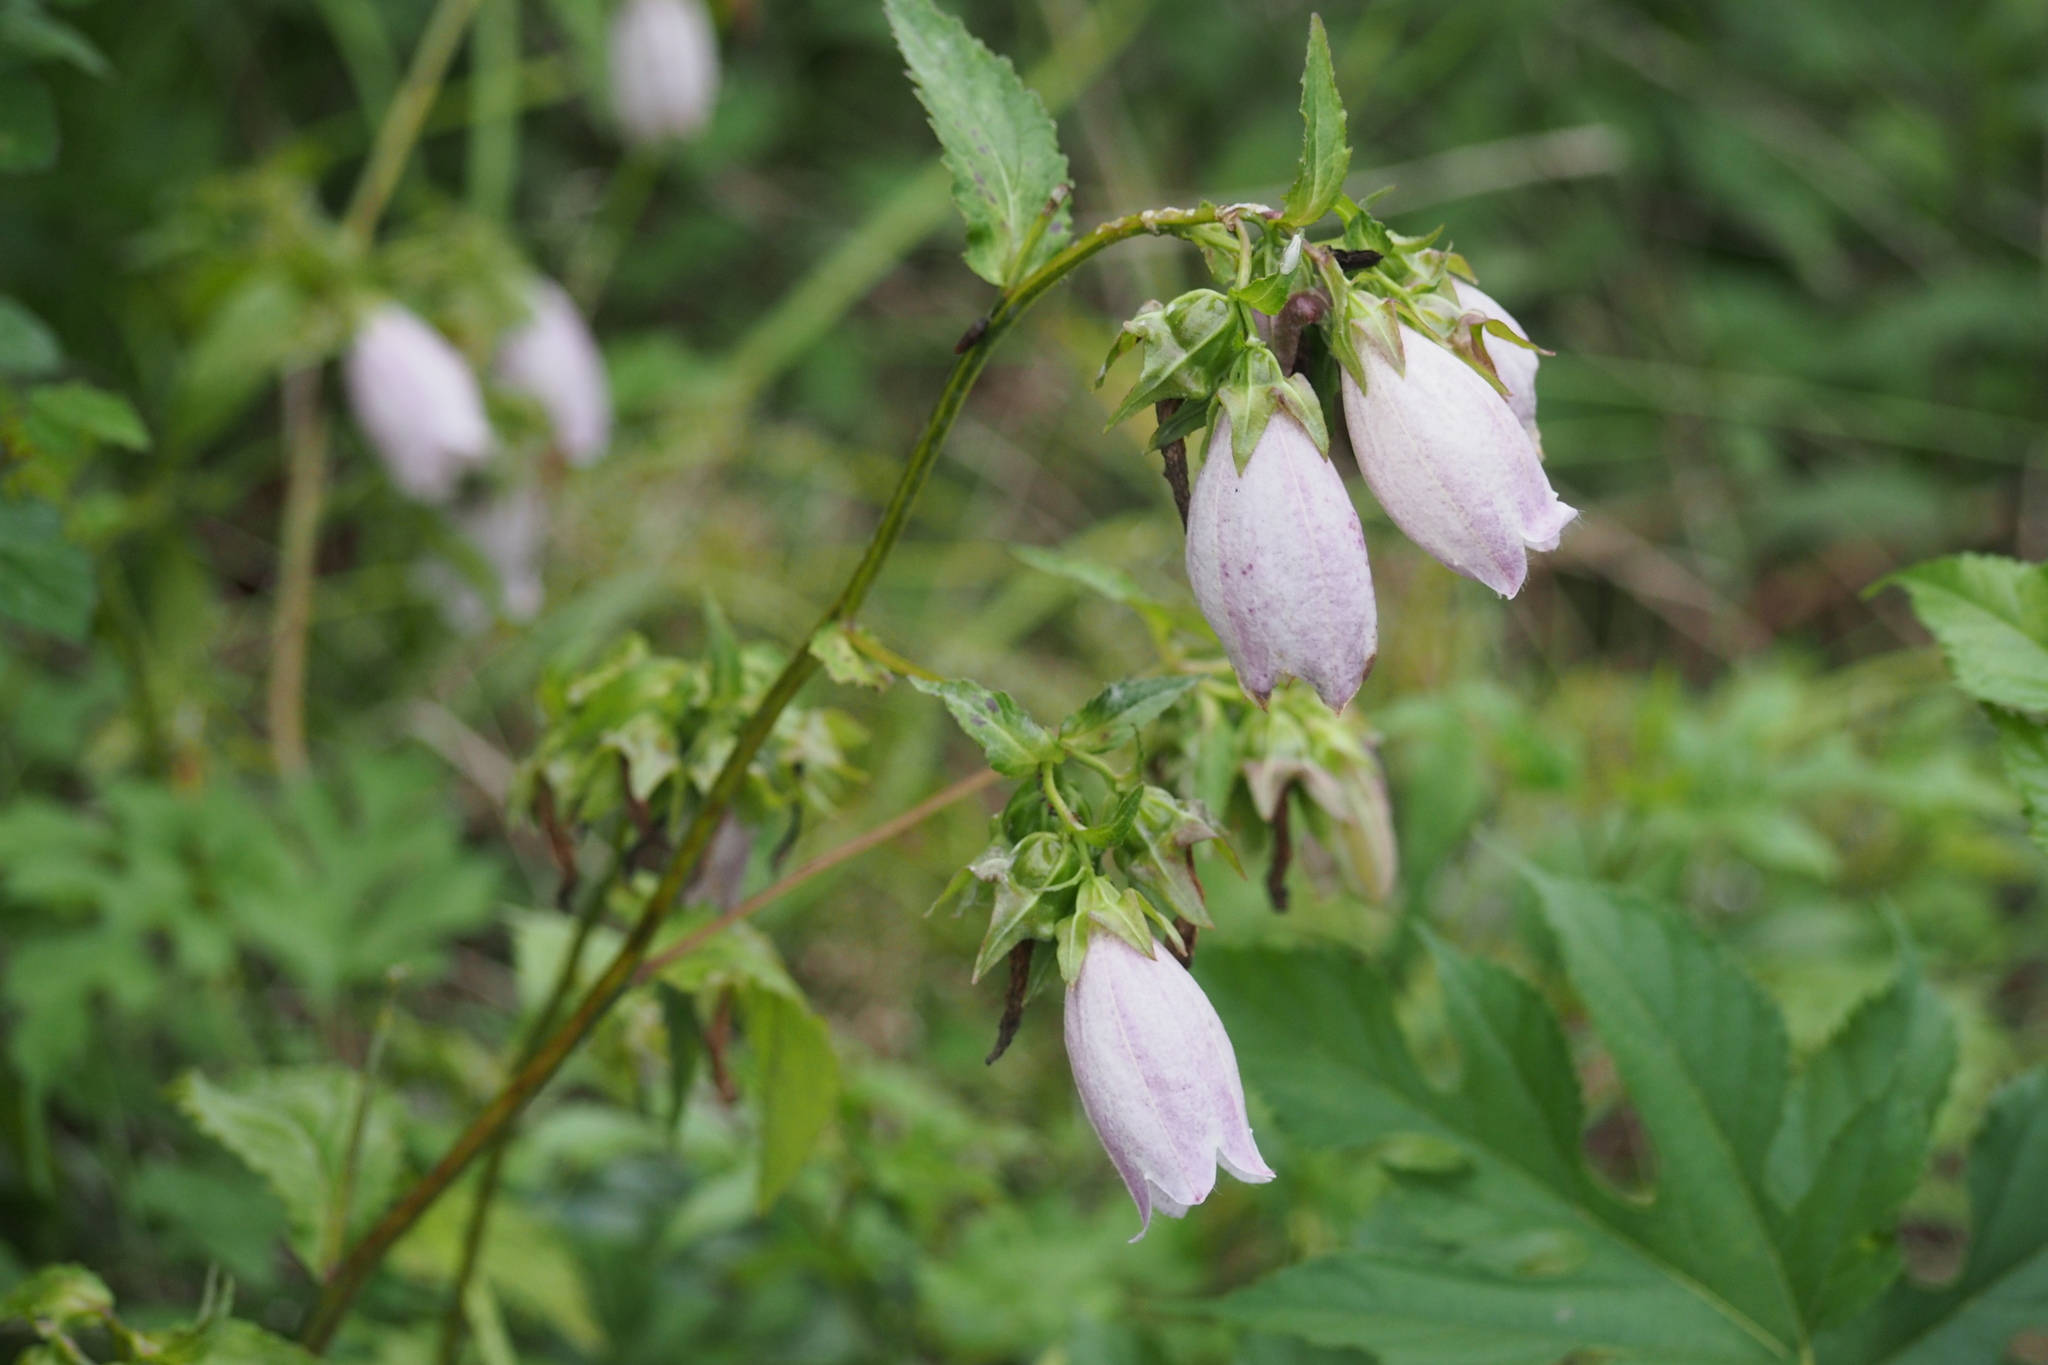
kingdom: Plantae
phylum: Tracheophyta
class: Magnoliopsida
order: Asterales
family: Campanulaceae
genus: Campanula
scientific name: Campanula punctata
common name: Spotted bellflower
